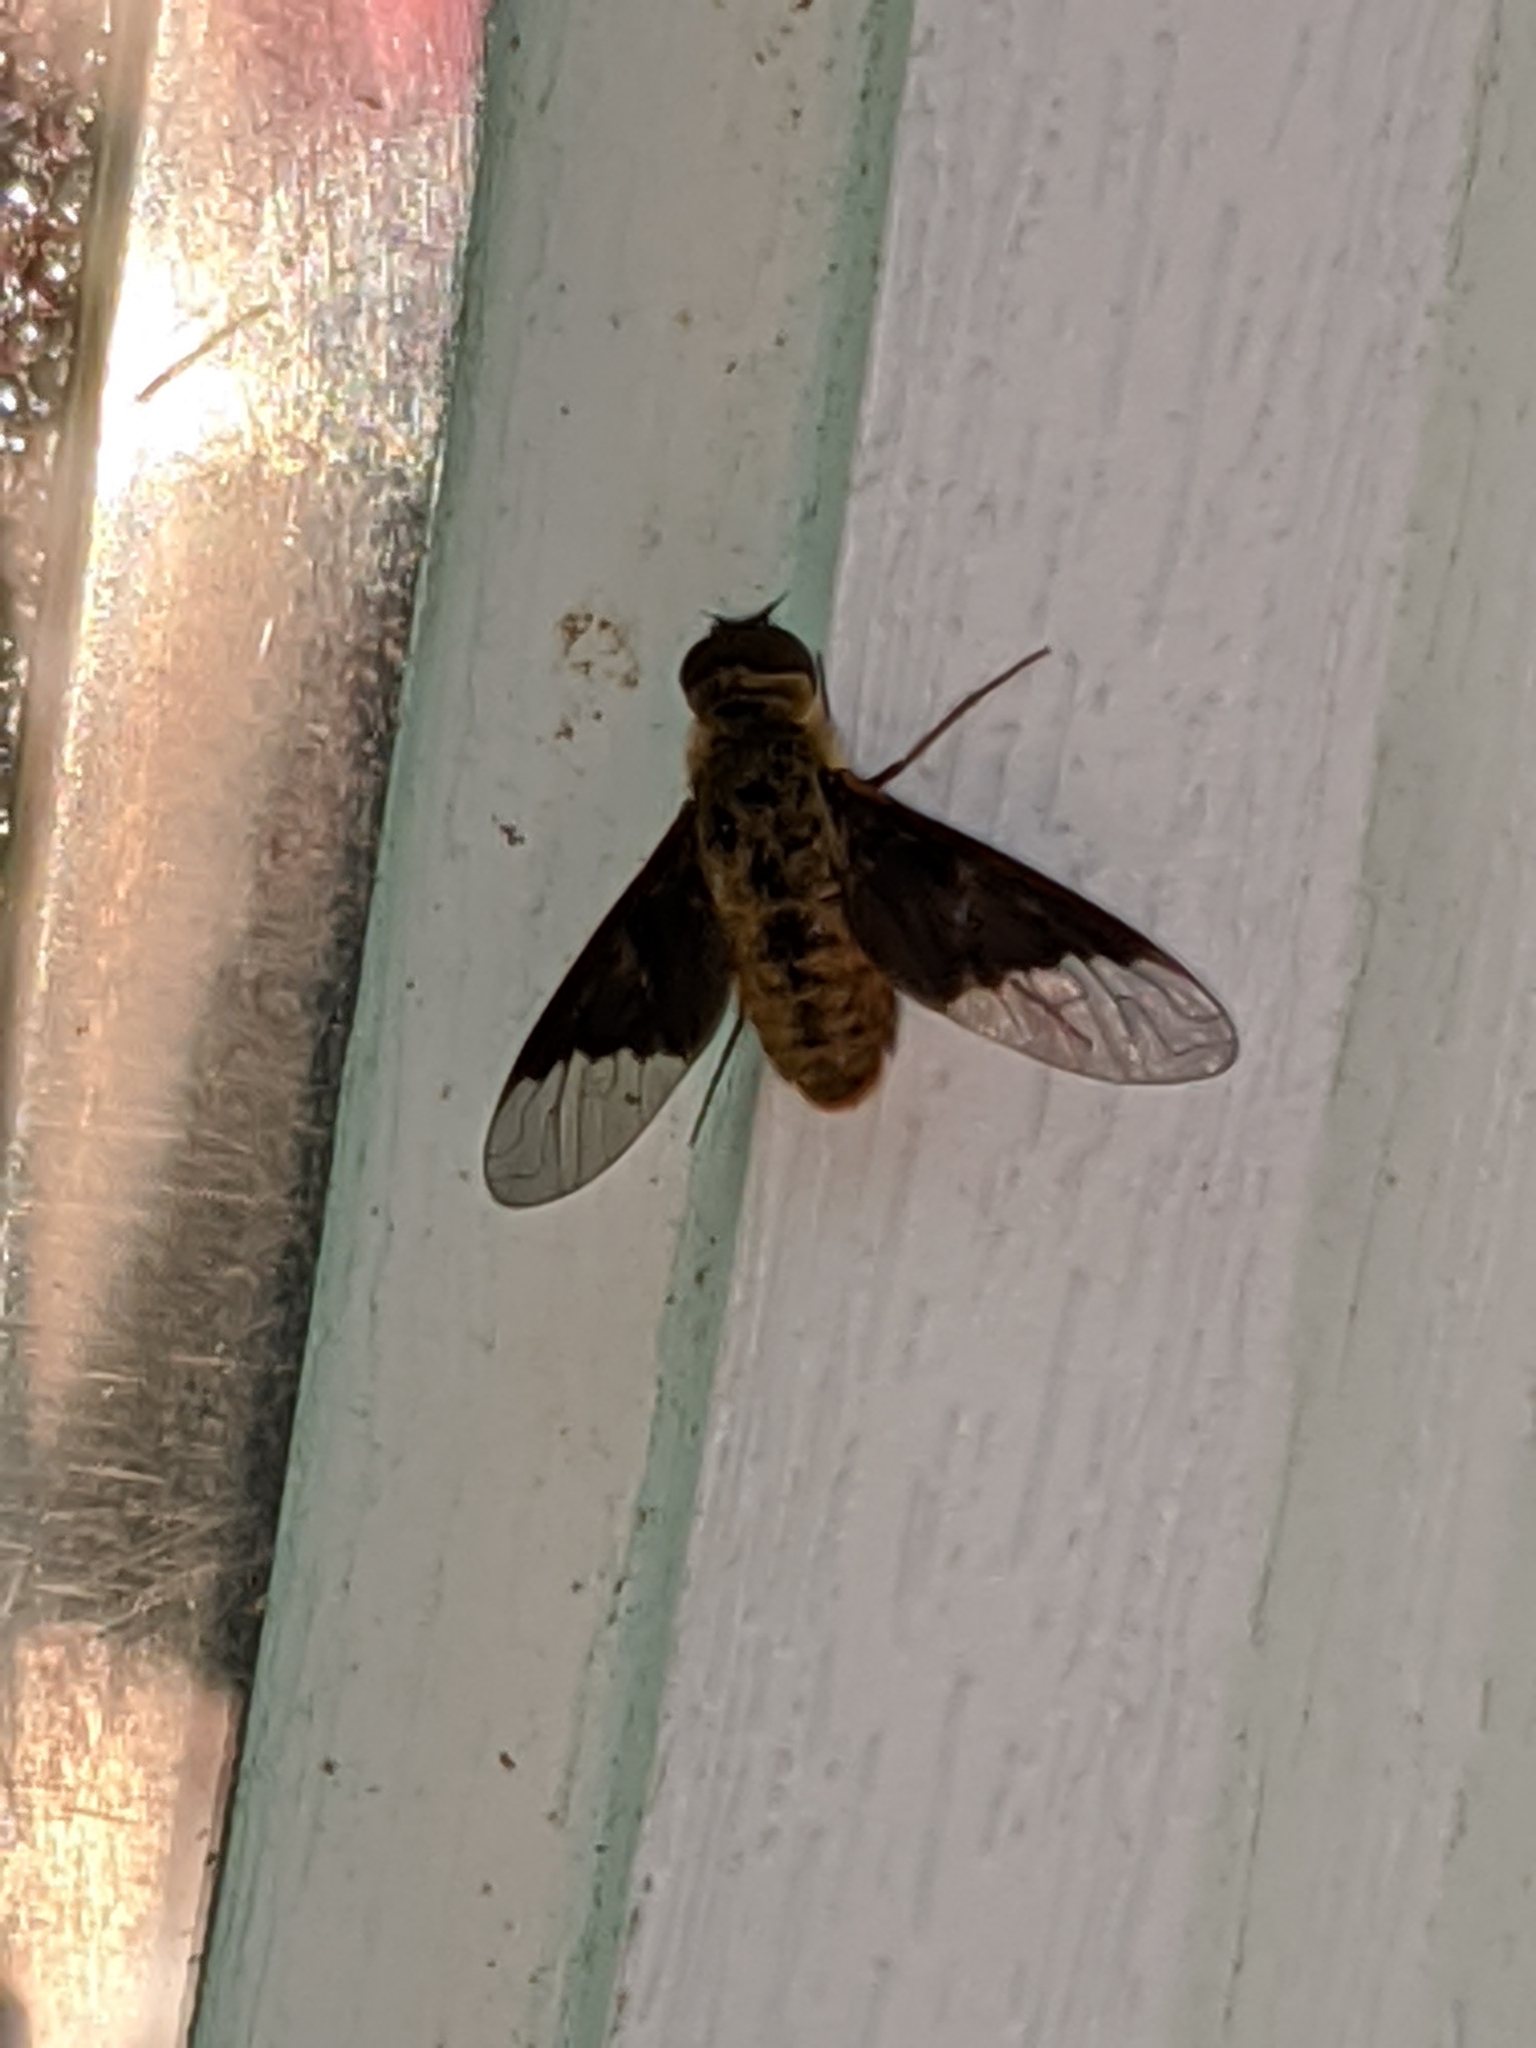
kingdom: Animalia
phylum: Arthropoda
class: Insecta
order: Diptera
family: Bombyliidae
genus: Chrysanthrax
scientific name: Chrysanthrax cypris
